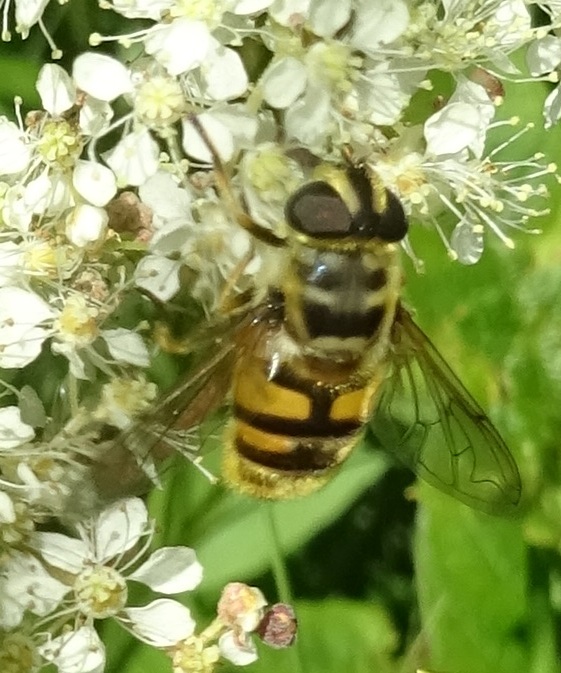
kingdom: Animalia
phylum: Arthropoda
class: Insecta
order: Diptera
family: Syrphidae
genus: Myathropa
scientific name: Myathropa florea
